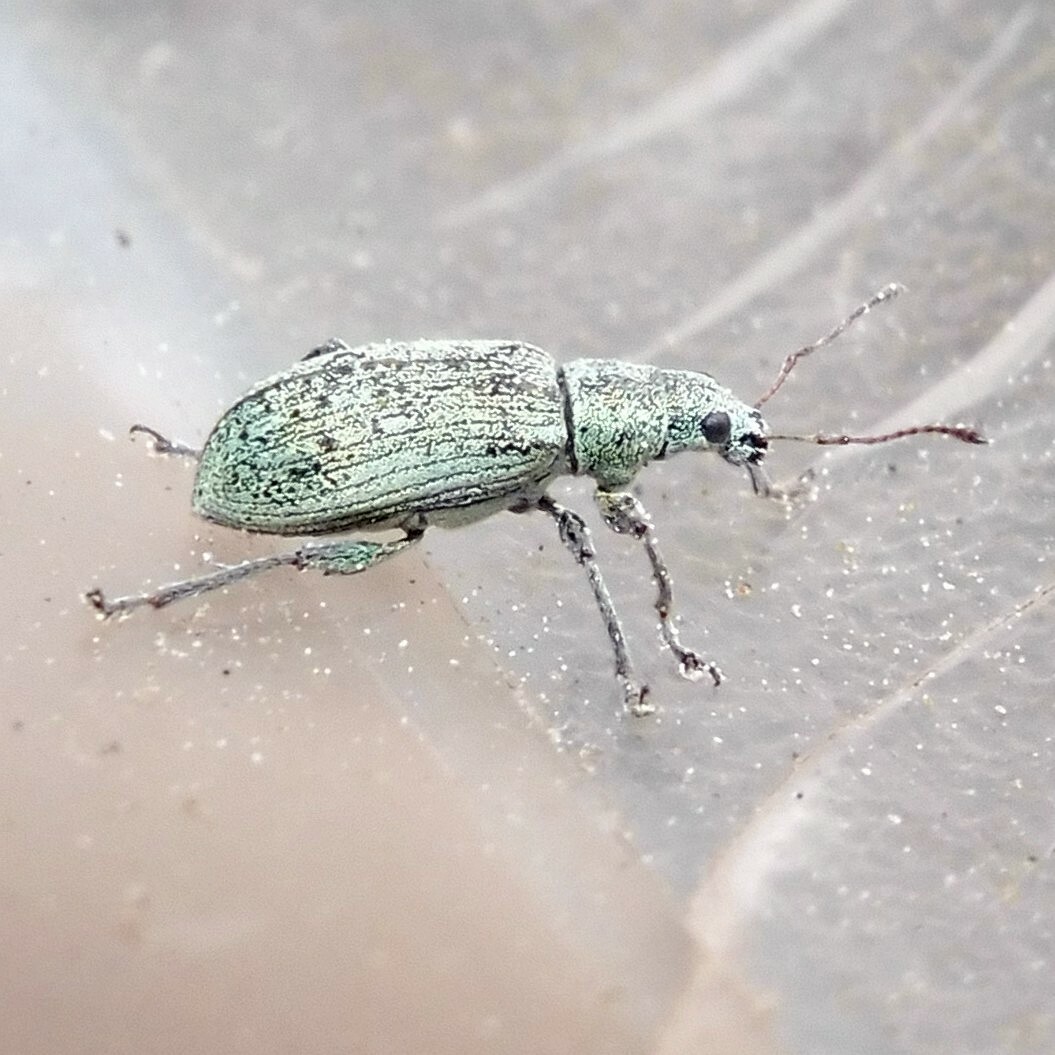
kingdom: Animalia
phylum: Arthropoda
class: Insecta
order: Coleoptera
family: Curculionidae
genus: Polydrusus
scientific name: Polydrusus cervinus
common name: Weevil
